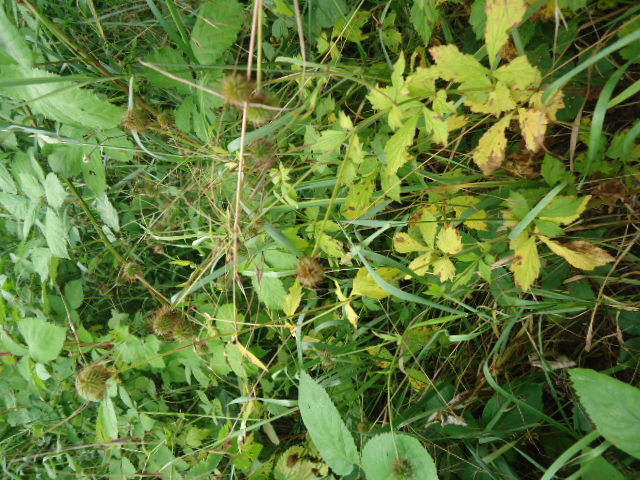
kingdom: Plantae
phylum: Tracheophyta
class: Magnoliopsida
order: Rosales
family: Rosaceae
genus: Geum
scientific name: Geum urbanum
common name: Wood avens
